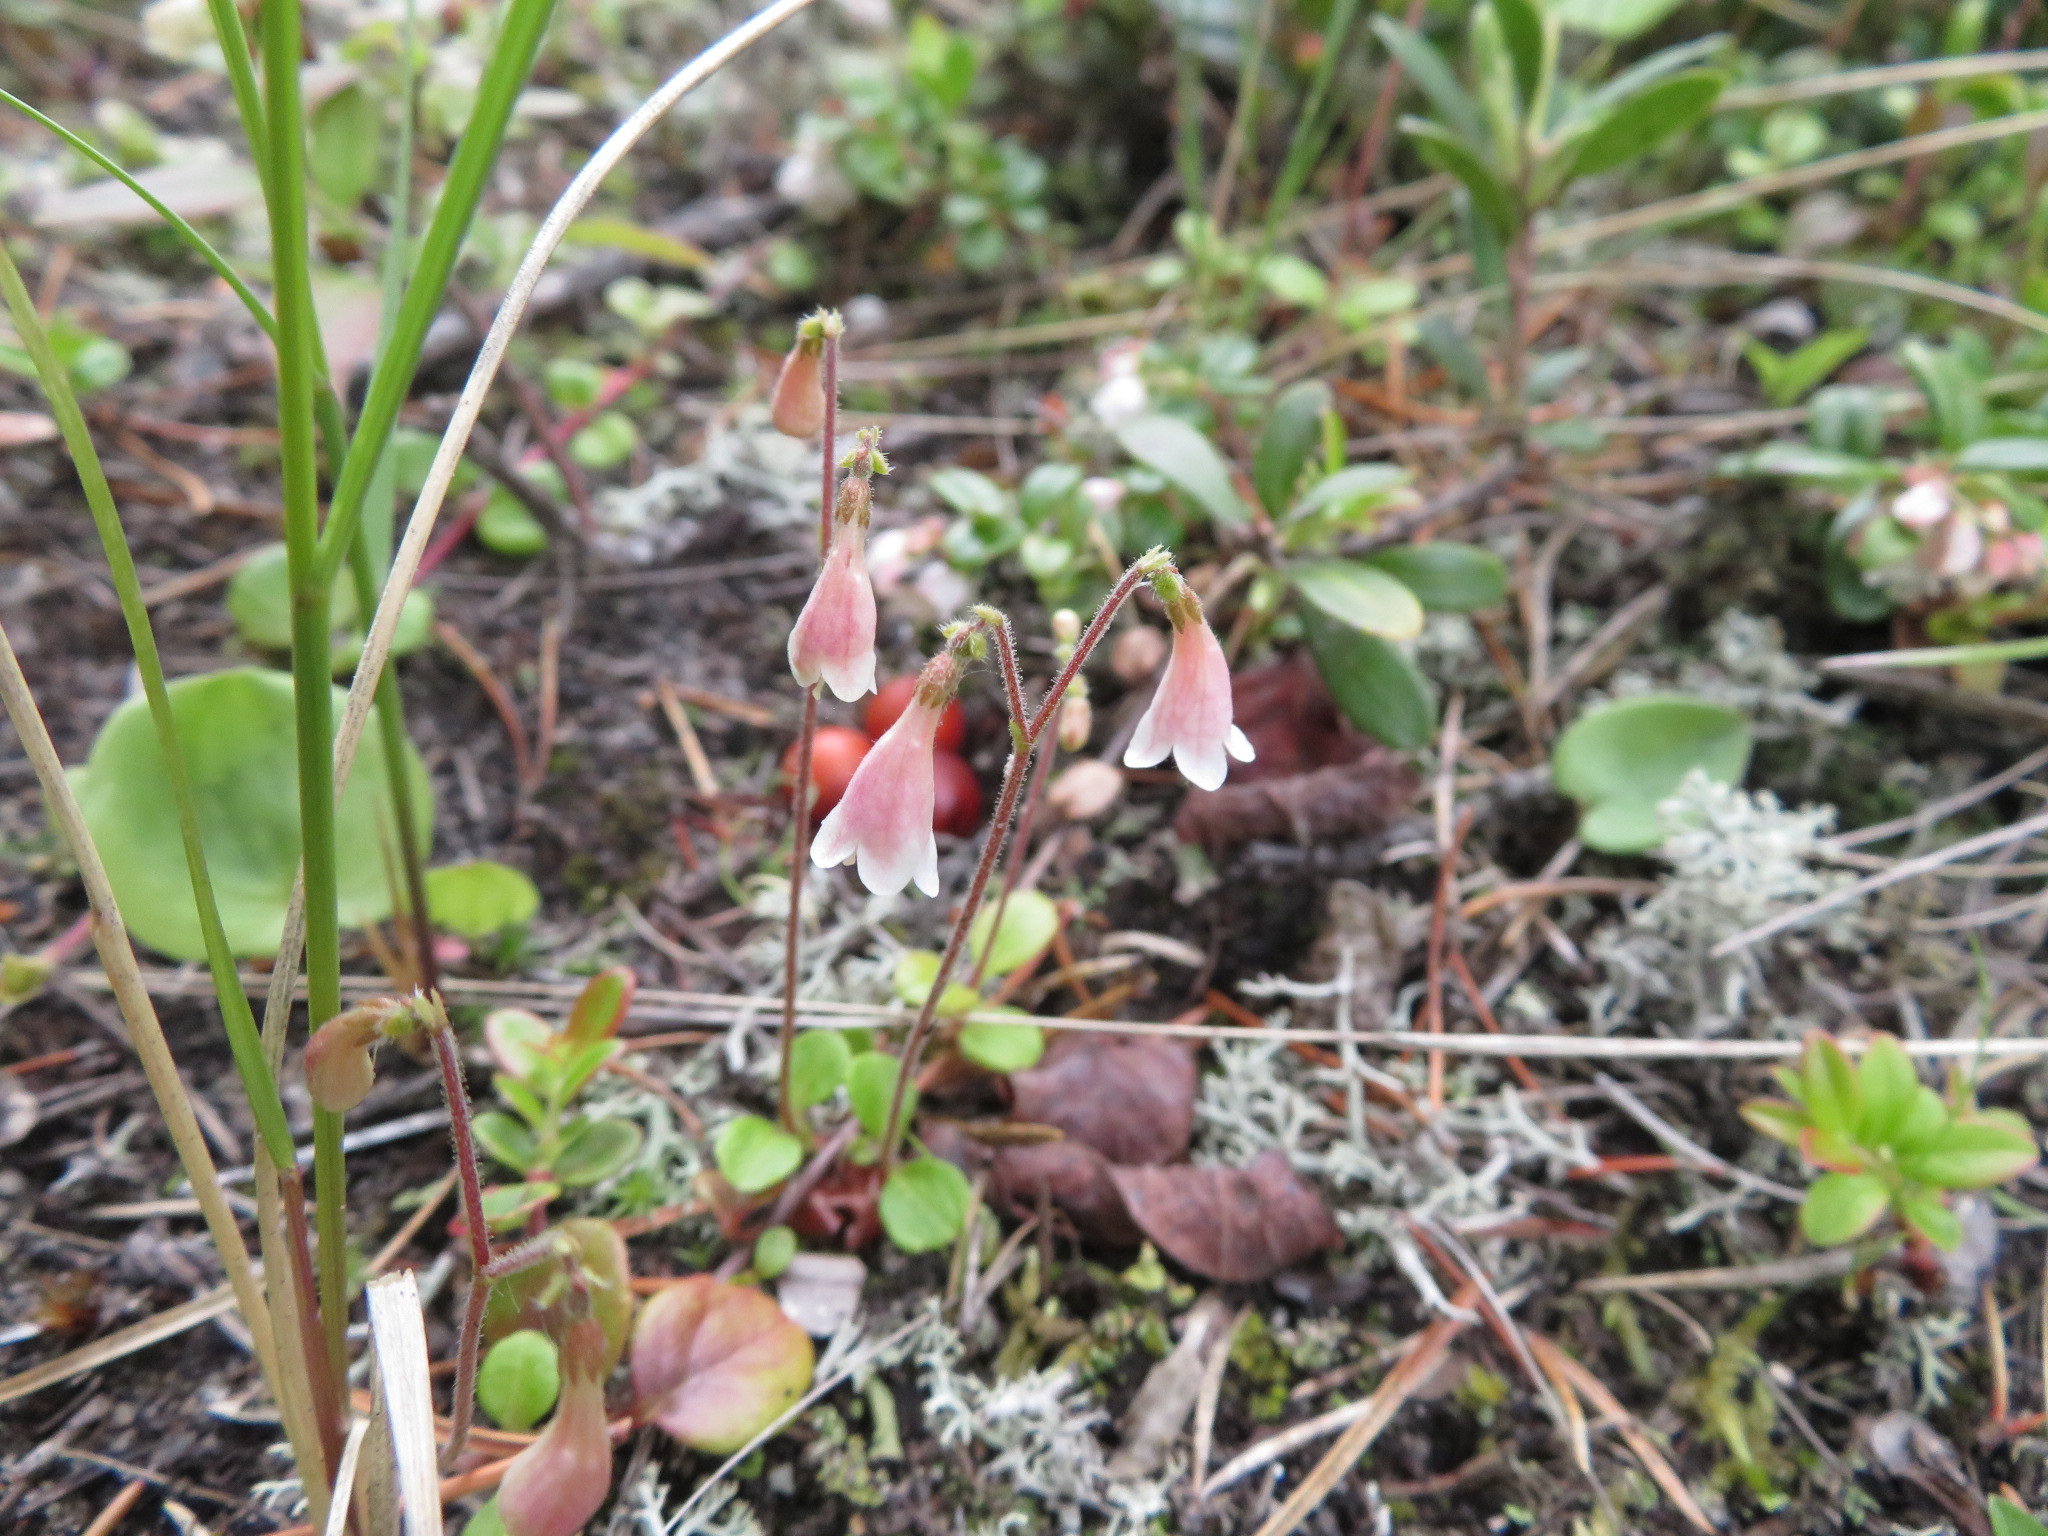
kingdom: Plantae
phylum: Tracheophyta
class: Magnoliopsida
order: Dipsacales
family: Caprifoliaceae
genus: Linnaea
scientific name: Linnaea borealis
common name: Twinflower
